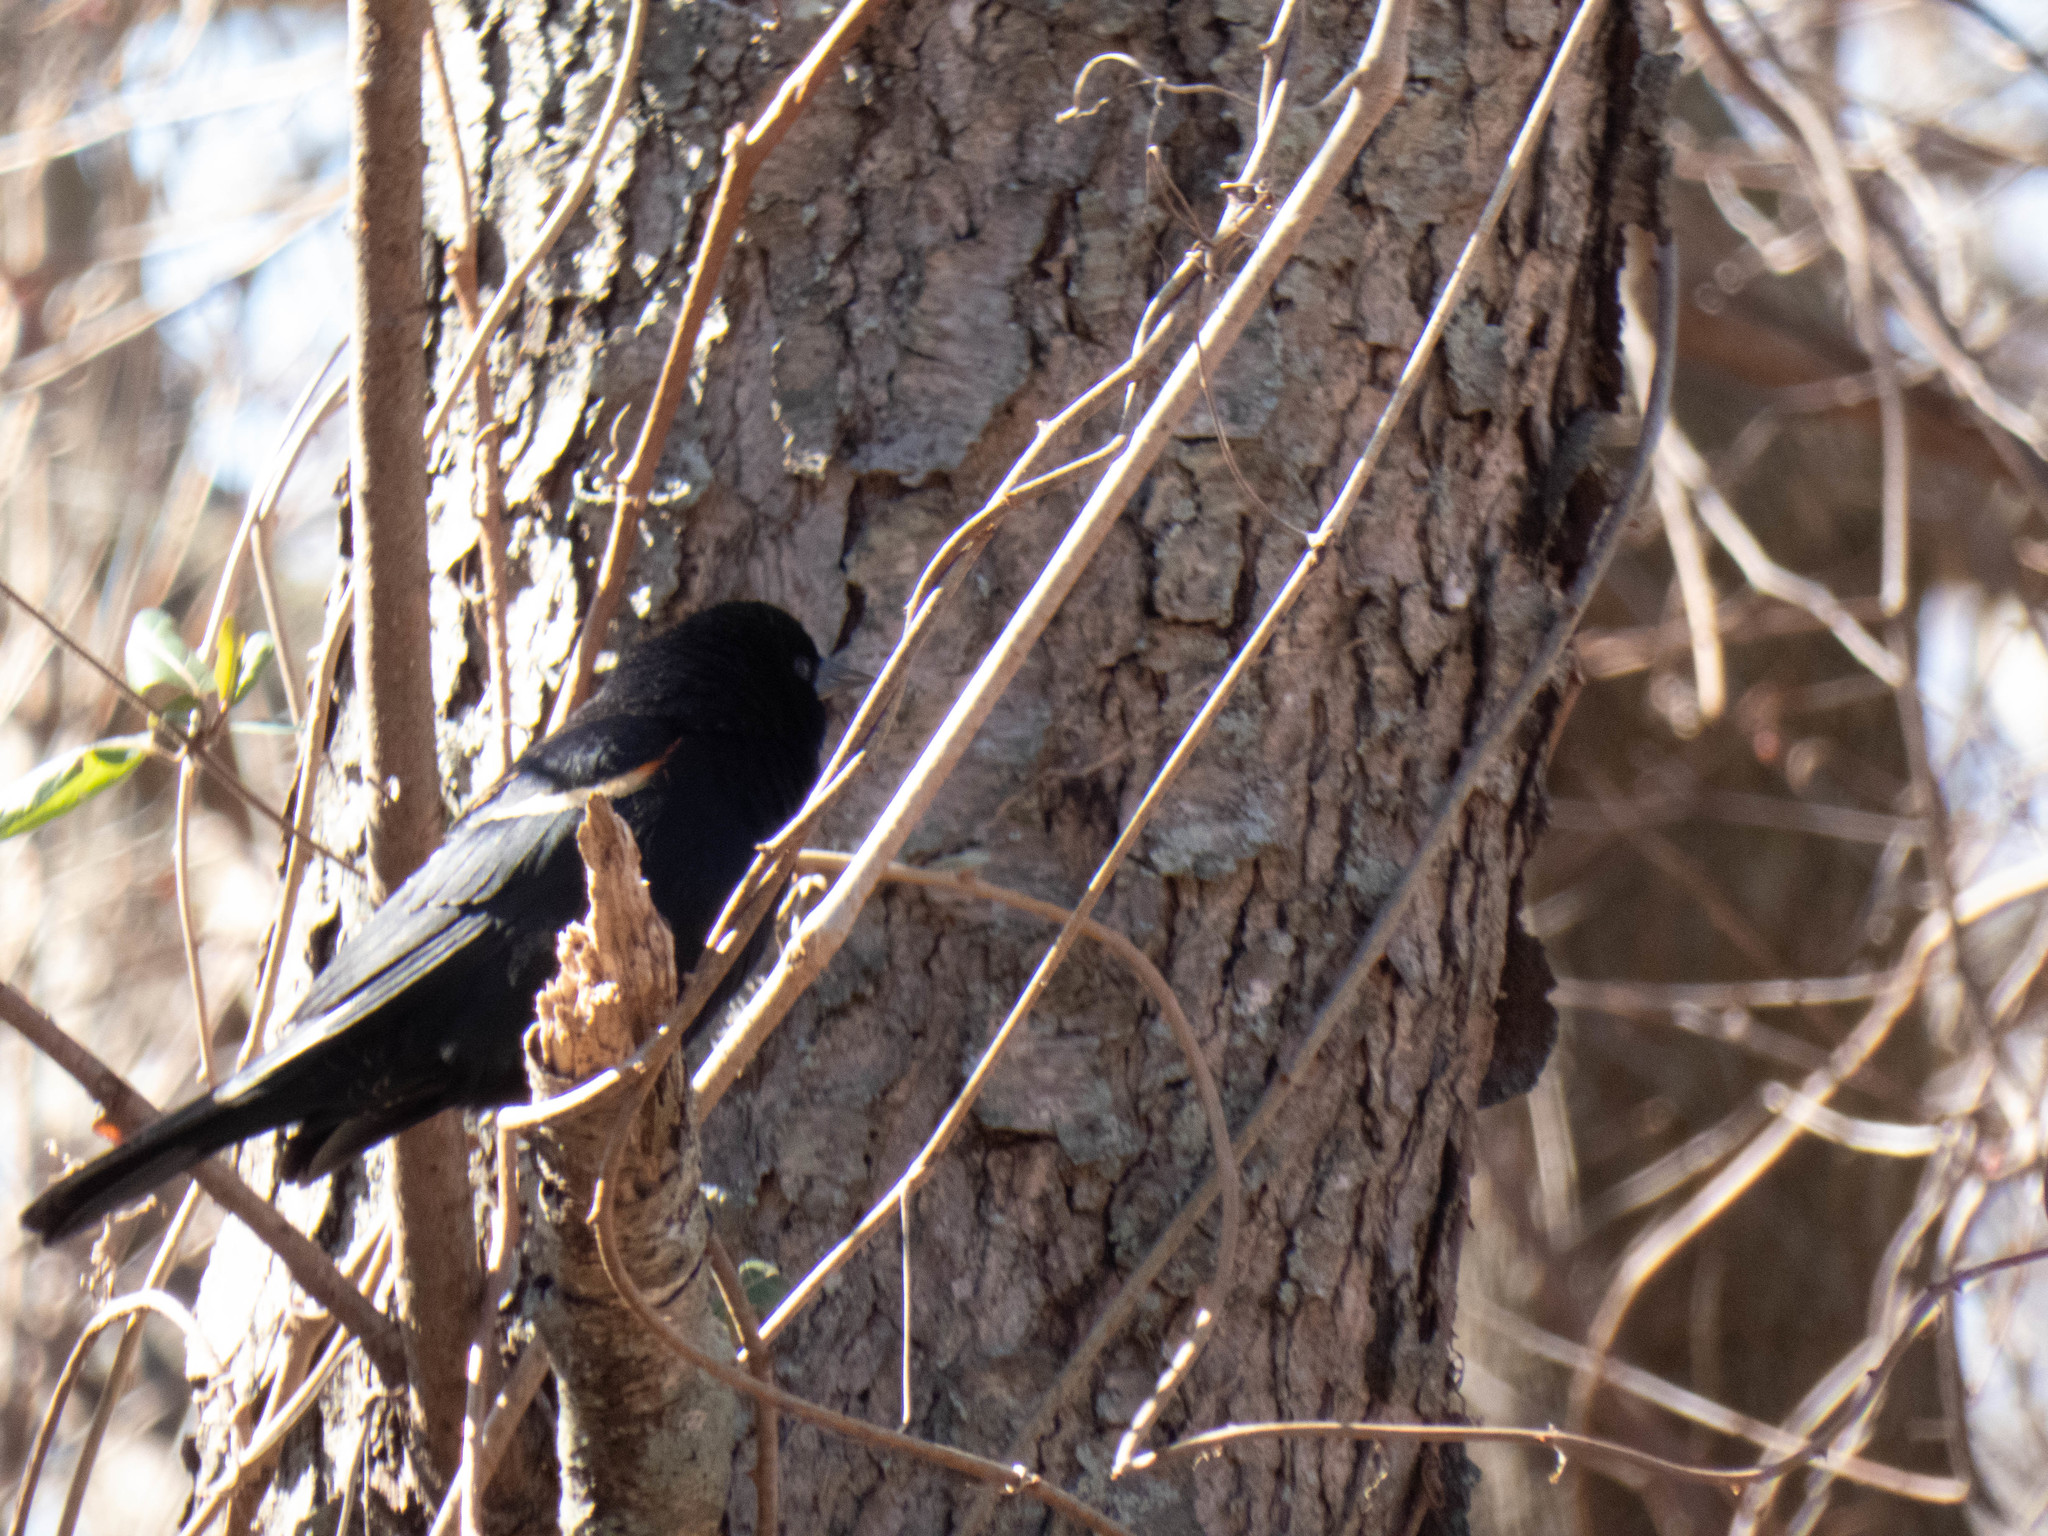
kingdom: Animalia
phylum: Chordata
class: Aves
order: Passeriformes
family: Icteridae
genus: Agelaius
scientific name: Agelaius phoeniceus
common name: Red-winged blackbird
